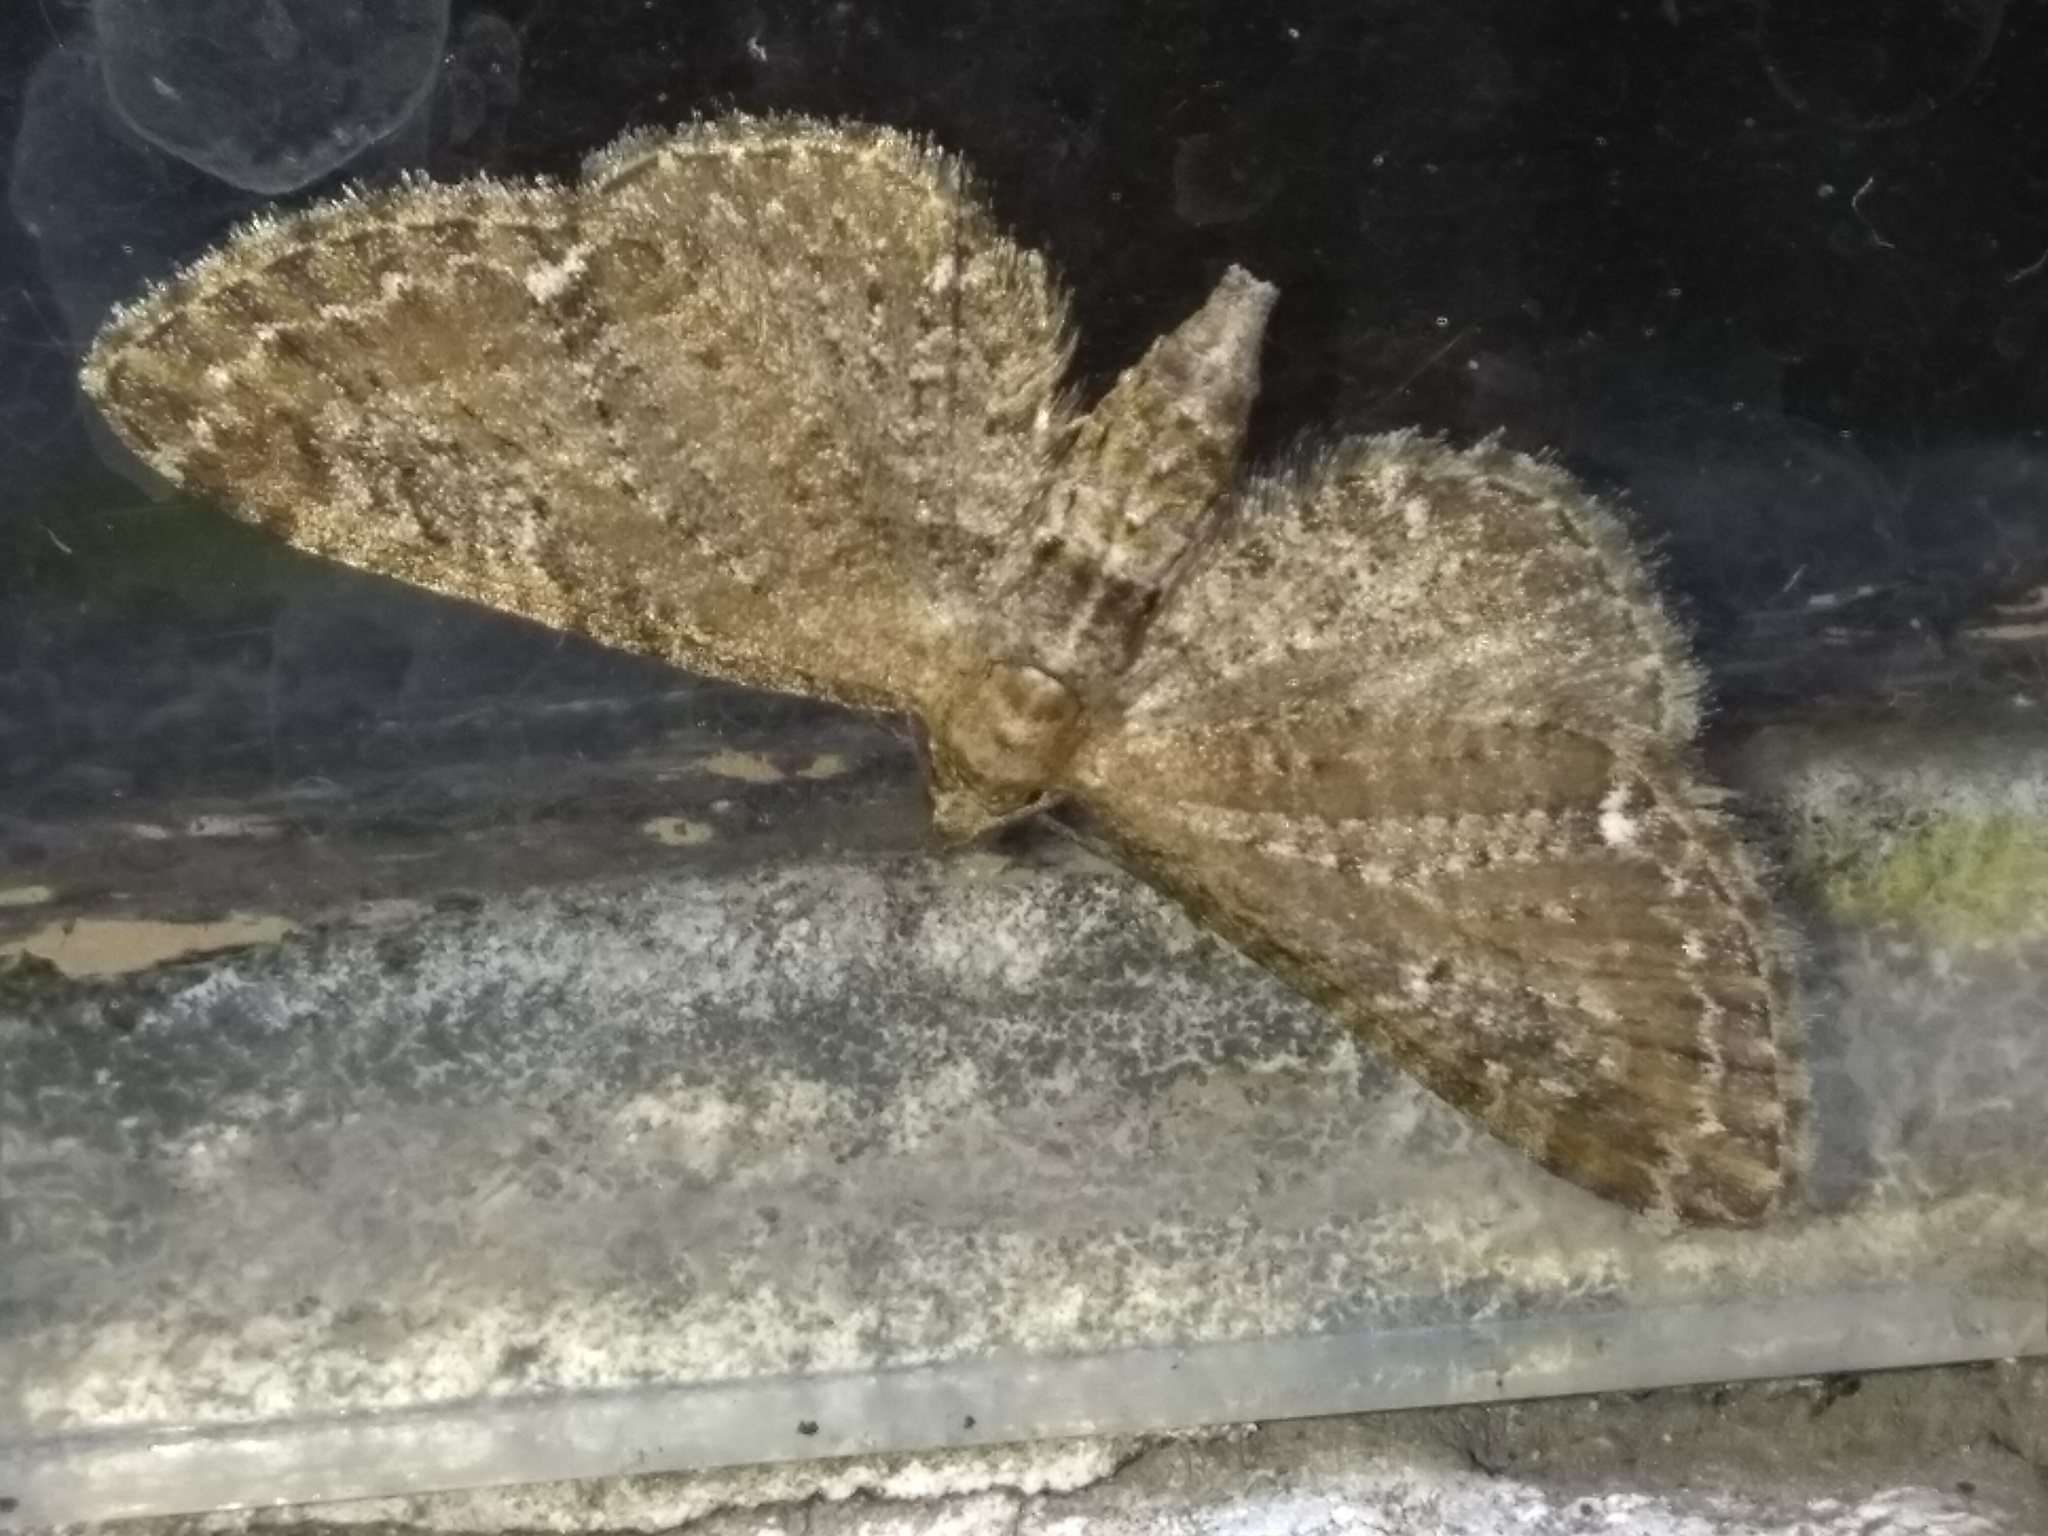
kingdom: Animalia
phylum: Arthropoda
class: Insecta
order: Lepidoptera
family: Geometridae
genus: Eupithecia
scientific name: Eupithecia vulgata
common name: Common pug
